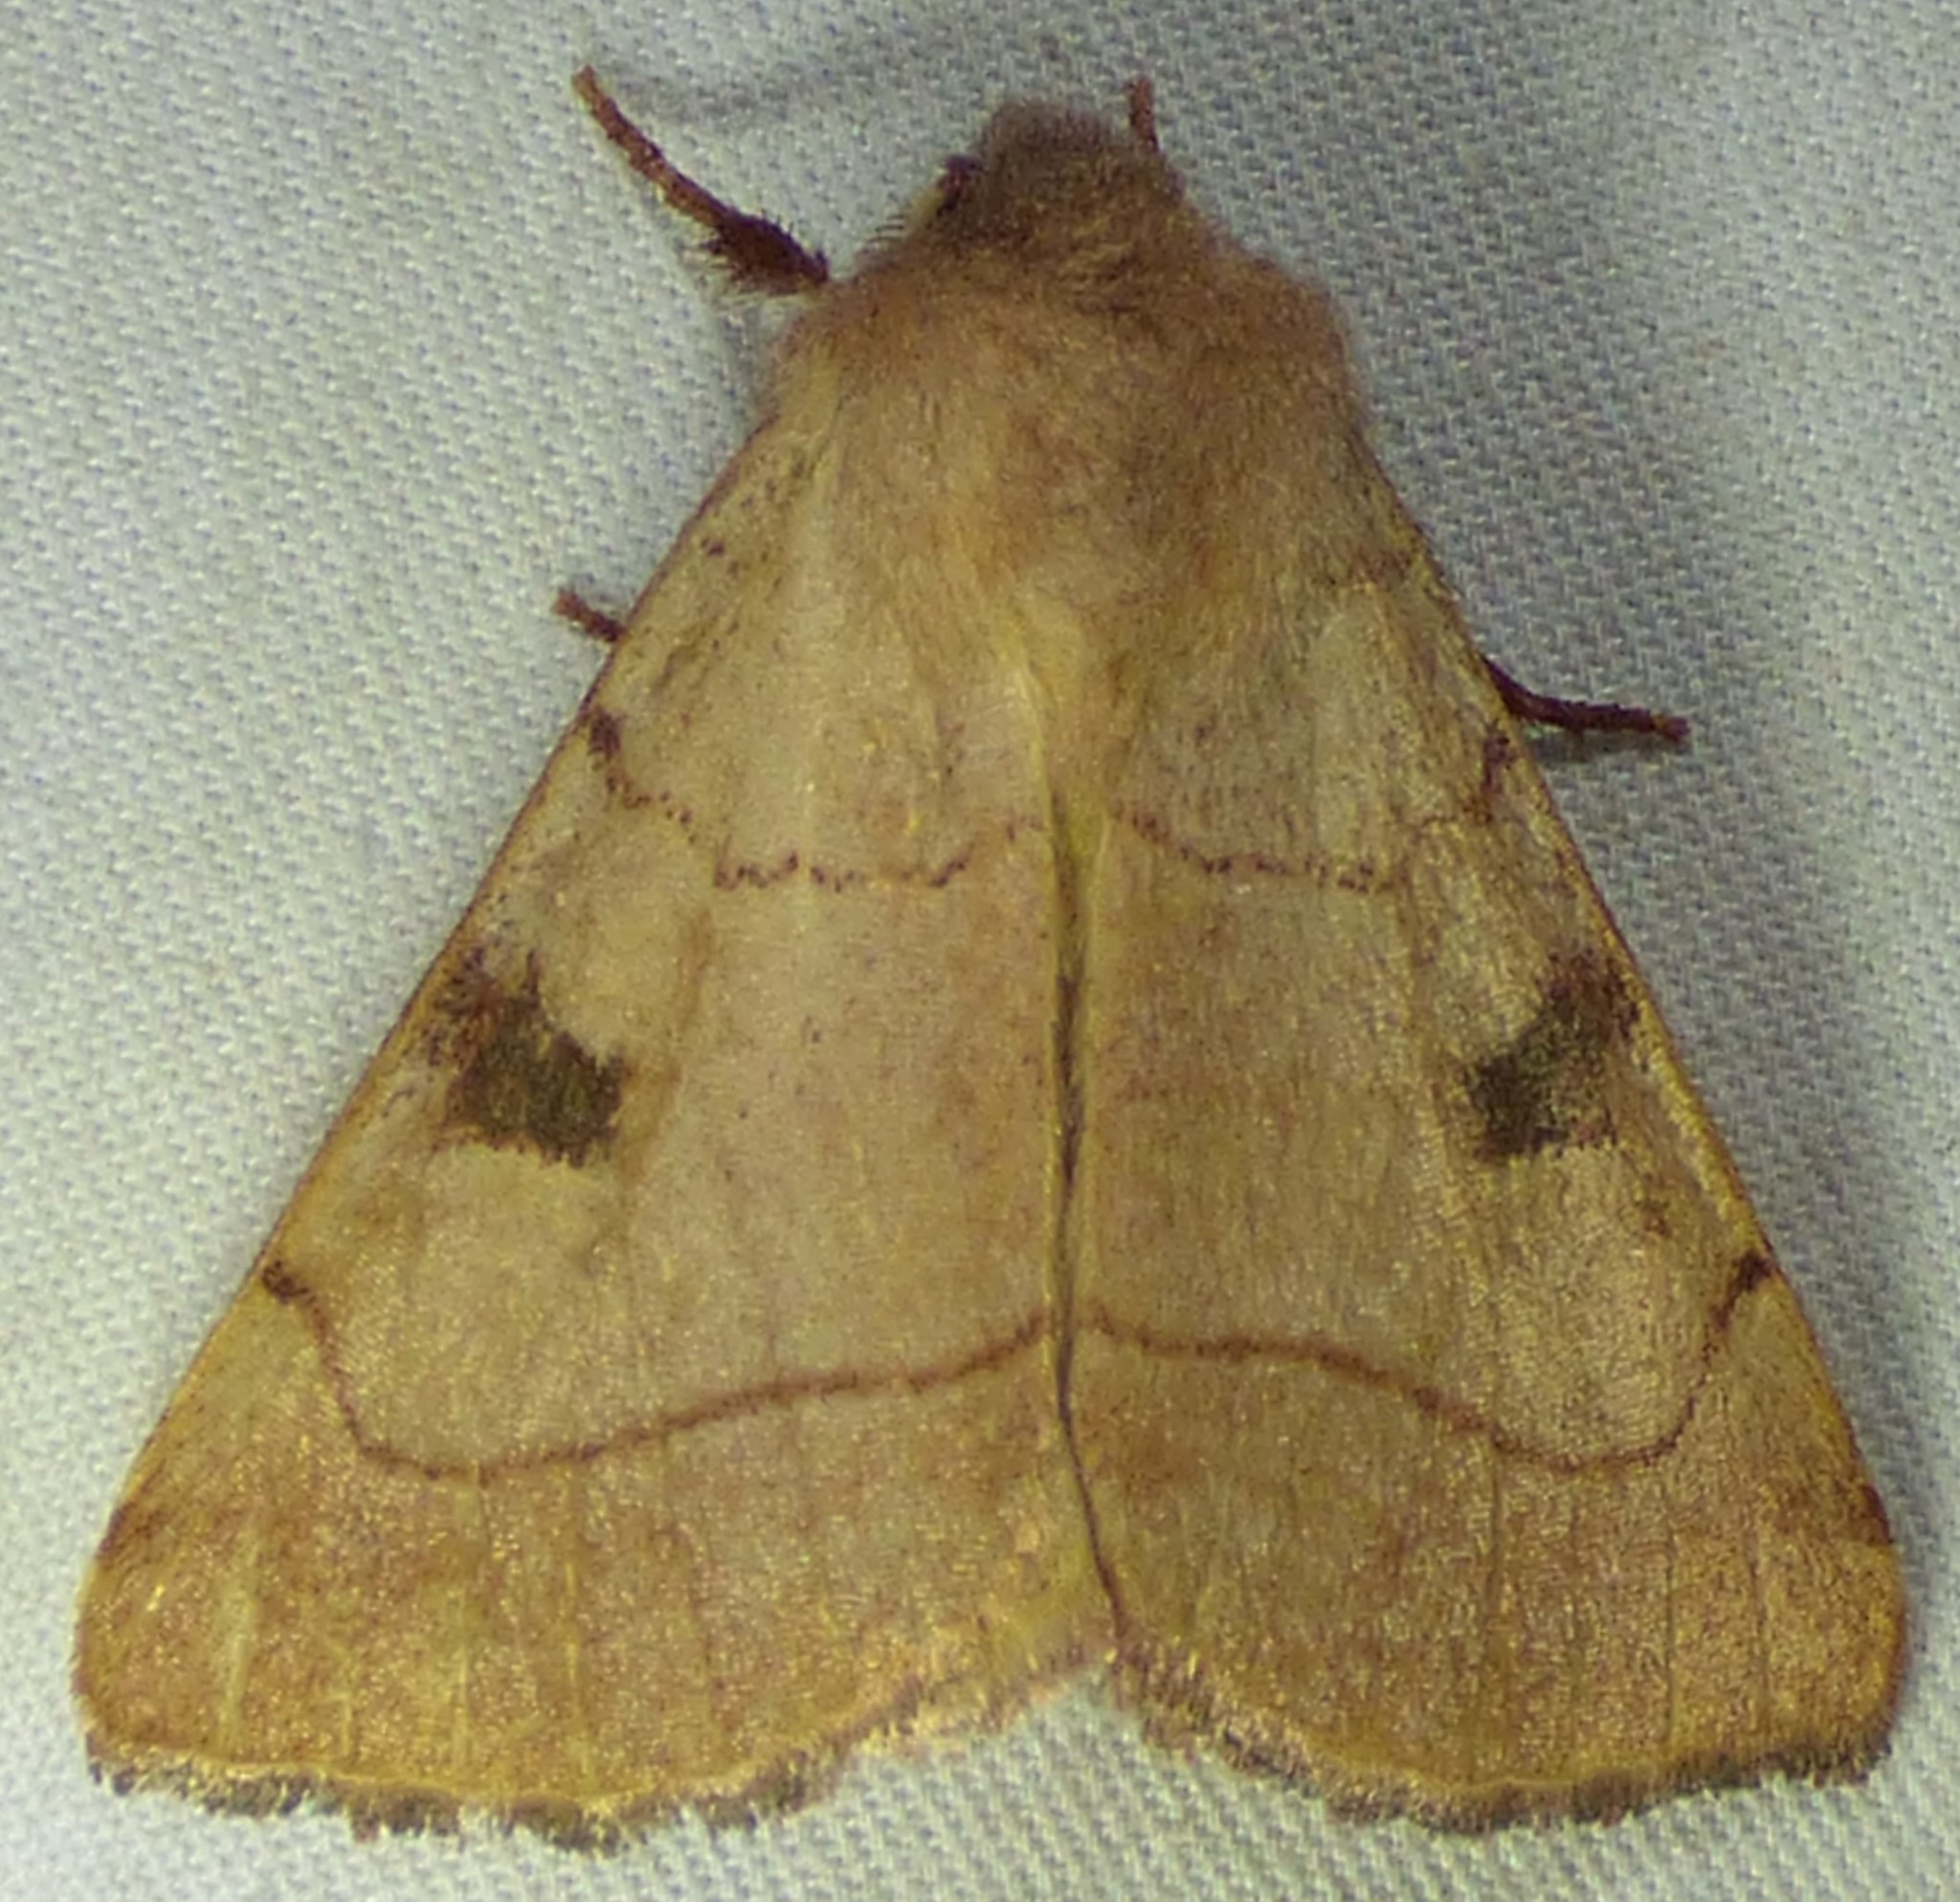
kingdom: Animalia
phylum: Arthropoda
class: Insecta
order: Lepidoptera
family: Noctuidae
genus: Choephora
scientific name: Choephora fungorum
